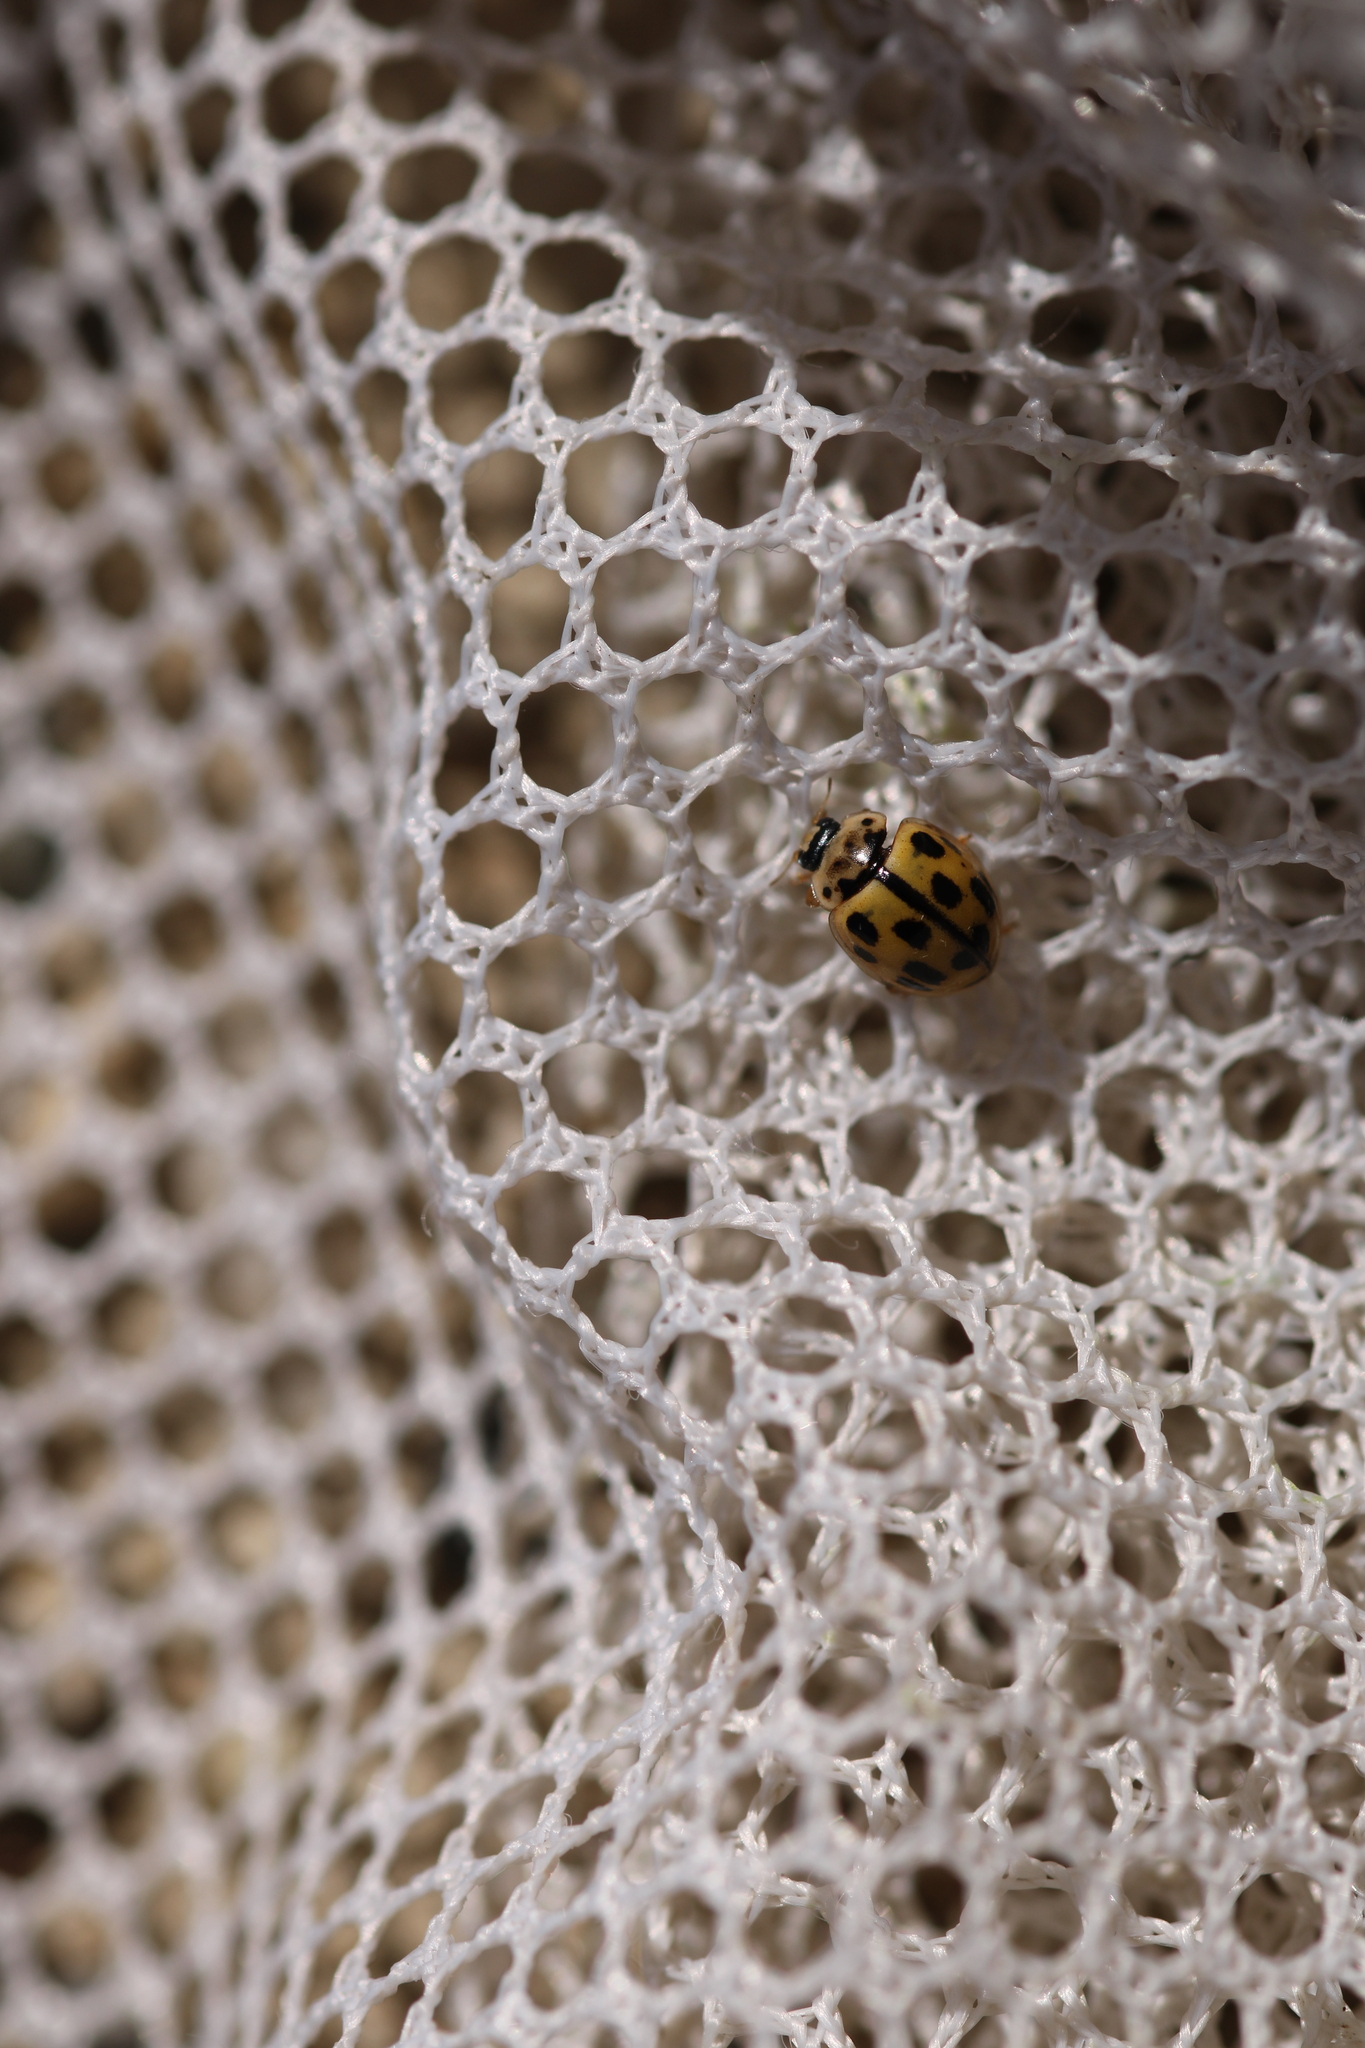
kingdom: Animalia
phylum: Arthropoda
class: Insecta
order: Coleoptera
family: Coccinellidae
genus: Propylaea
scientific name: Propylaea quatuordecimpunctata
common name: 14-spotted ladybird beetle
